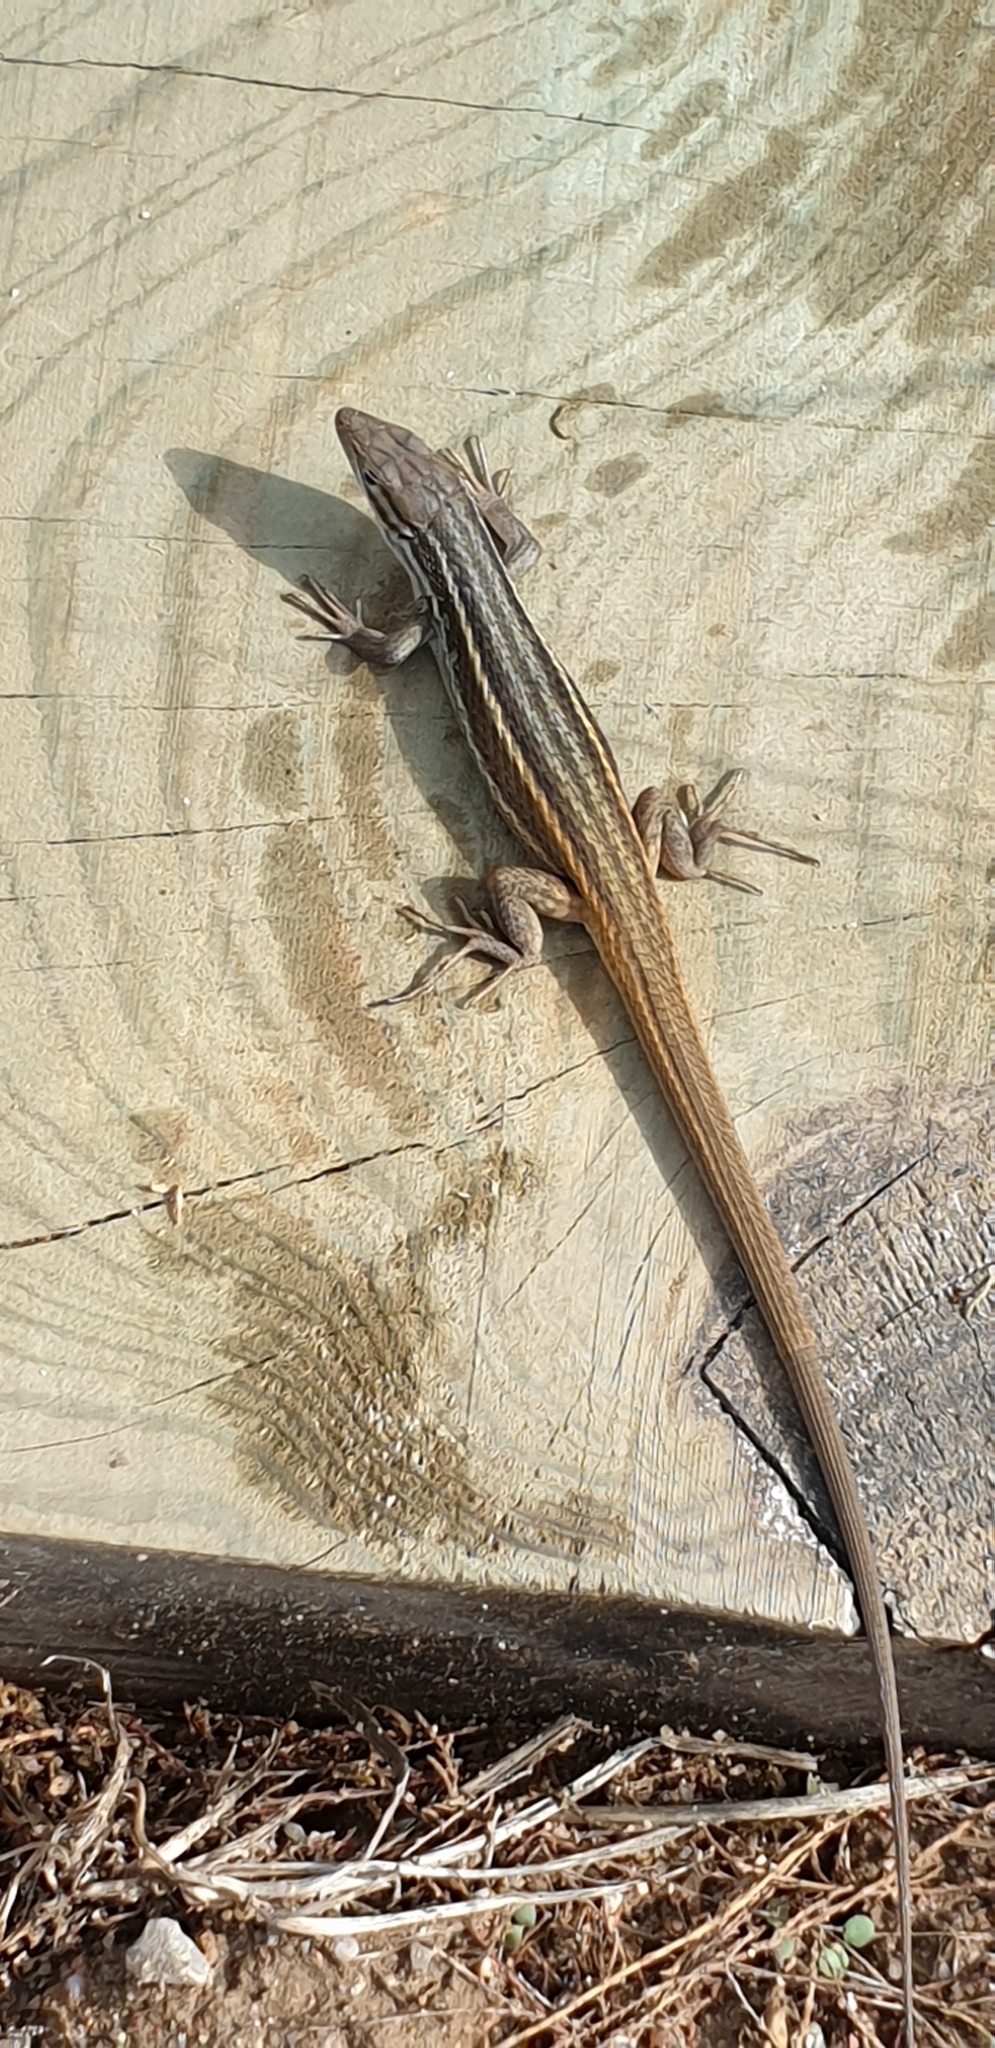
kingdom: Animalia
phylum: Chordata
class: Squamata
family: Lacertidae
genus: Psammodromus
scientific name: Psammodromus algirus
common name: Algerian psammodromus
